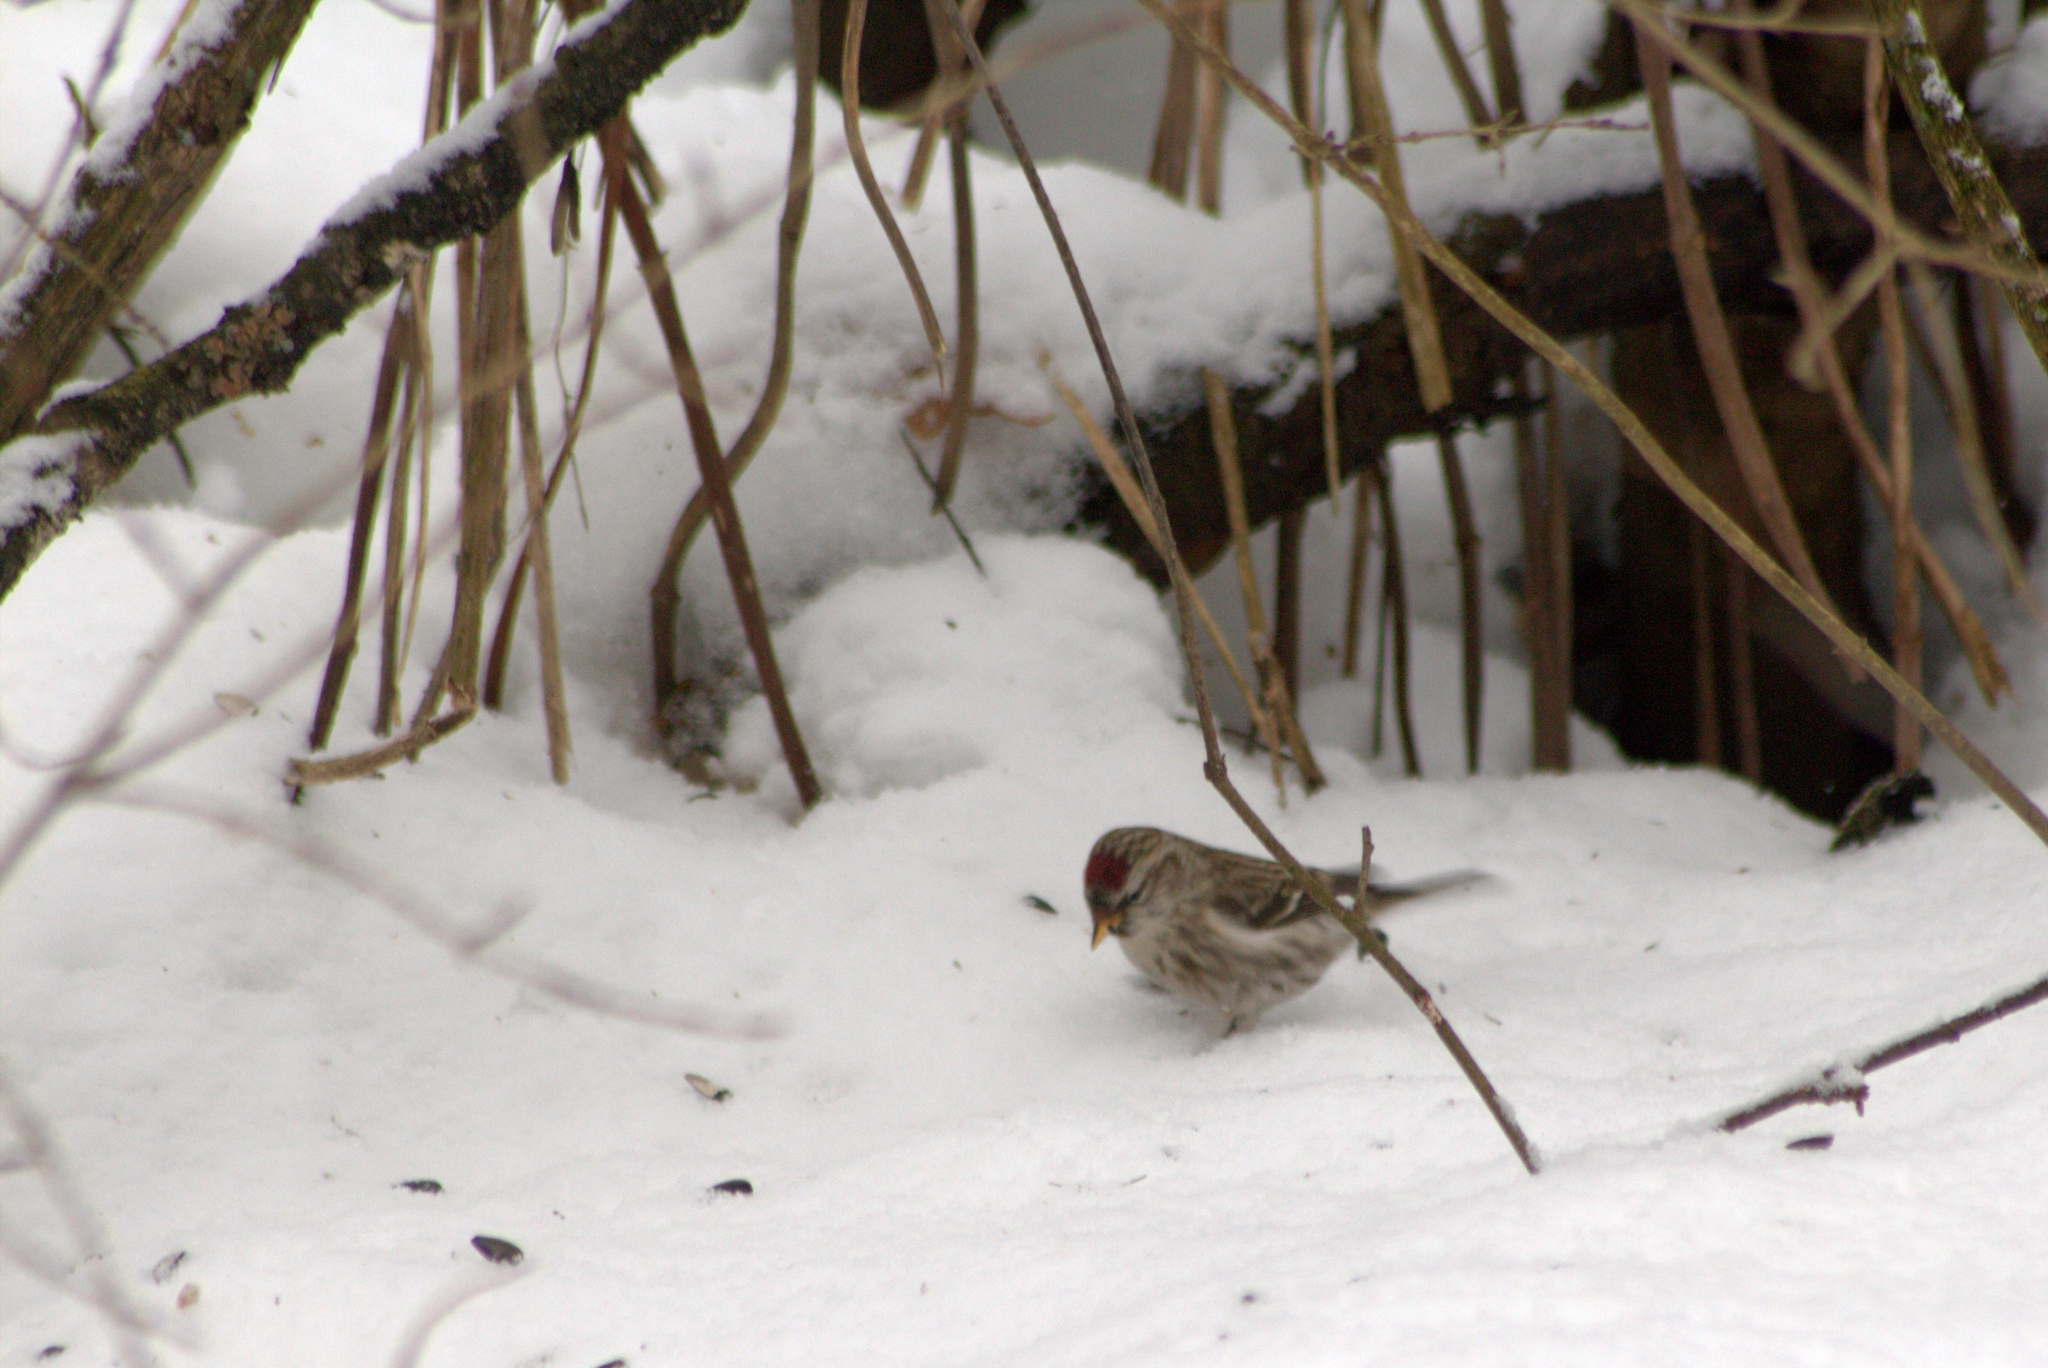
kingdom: Animalia
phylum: Chordata
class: Aves
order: Passeriformes
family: Fringillidae
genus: Acanthis
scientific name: Acanthis flammea
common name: Common redpoll
